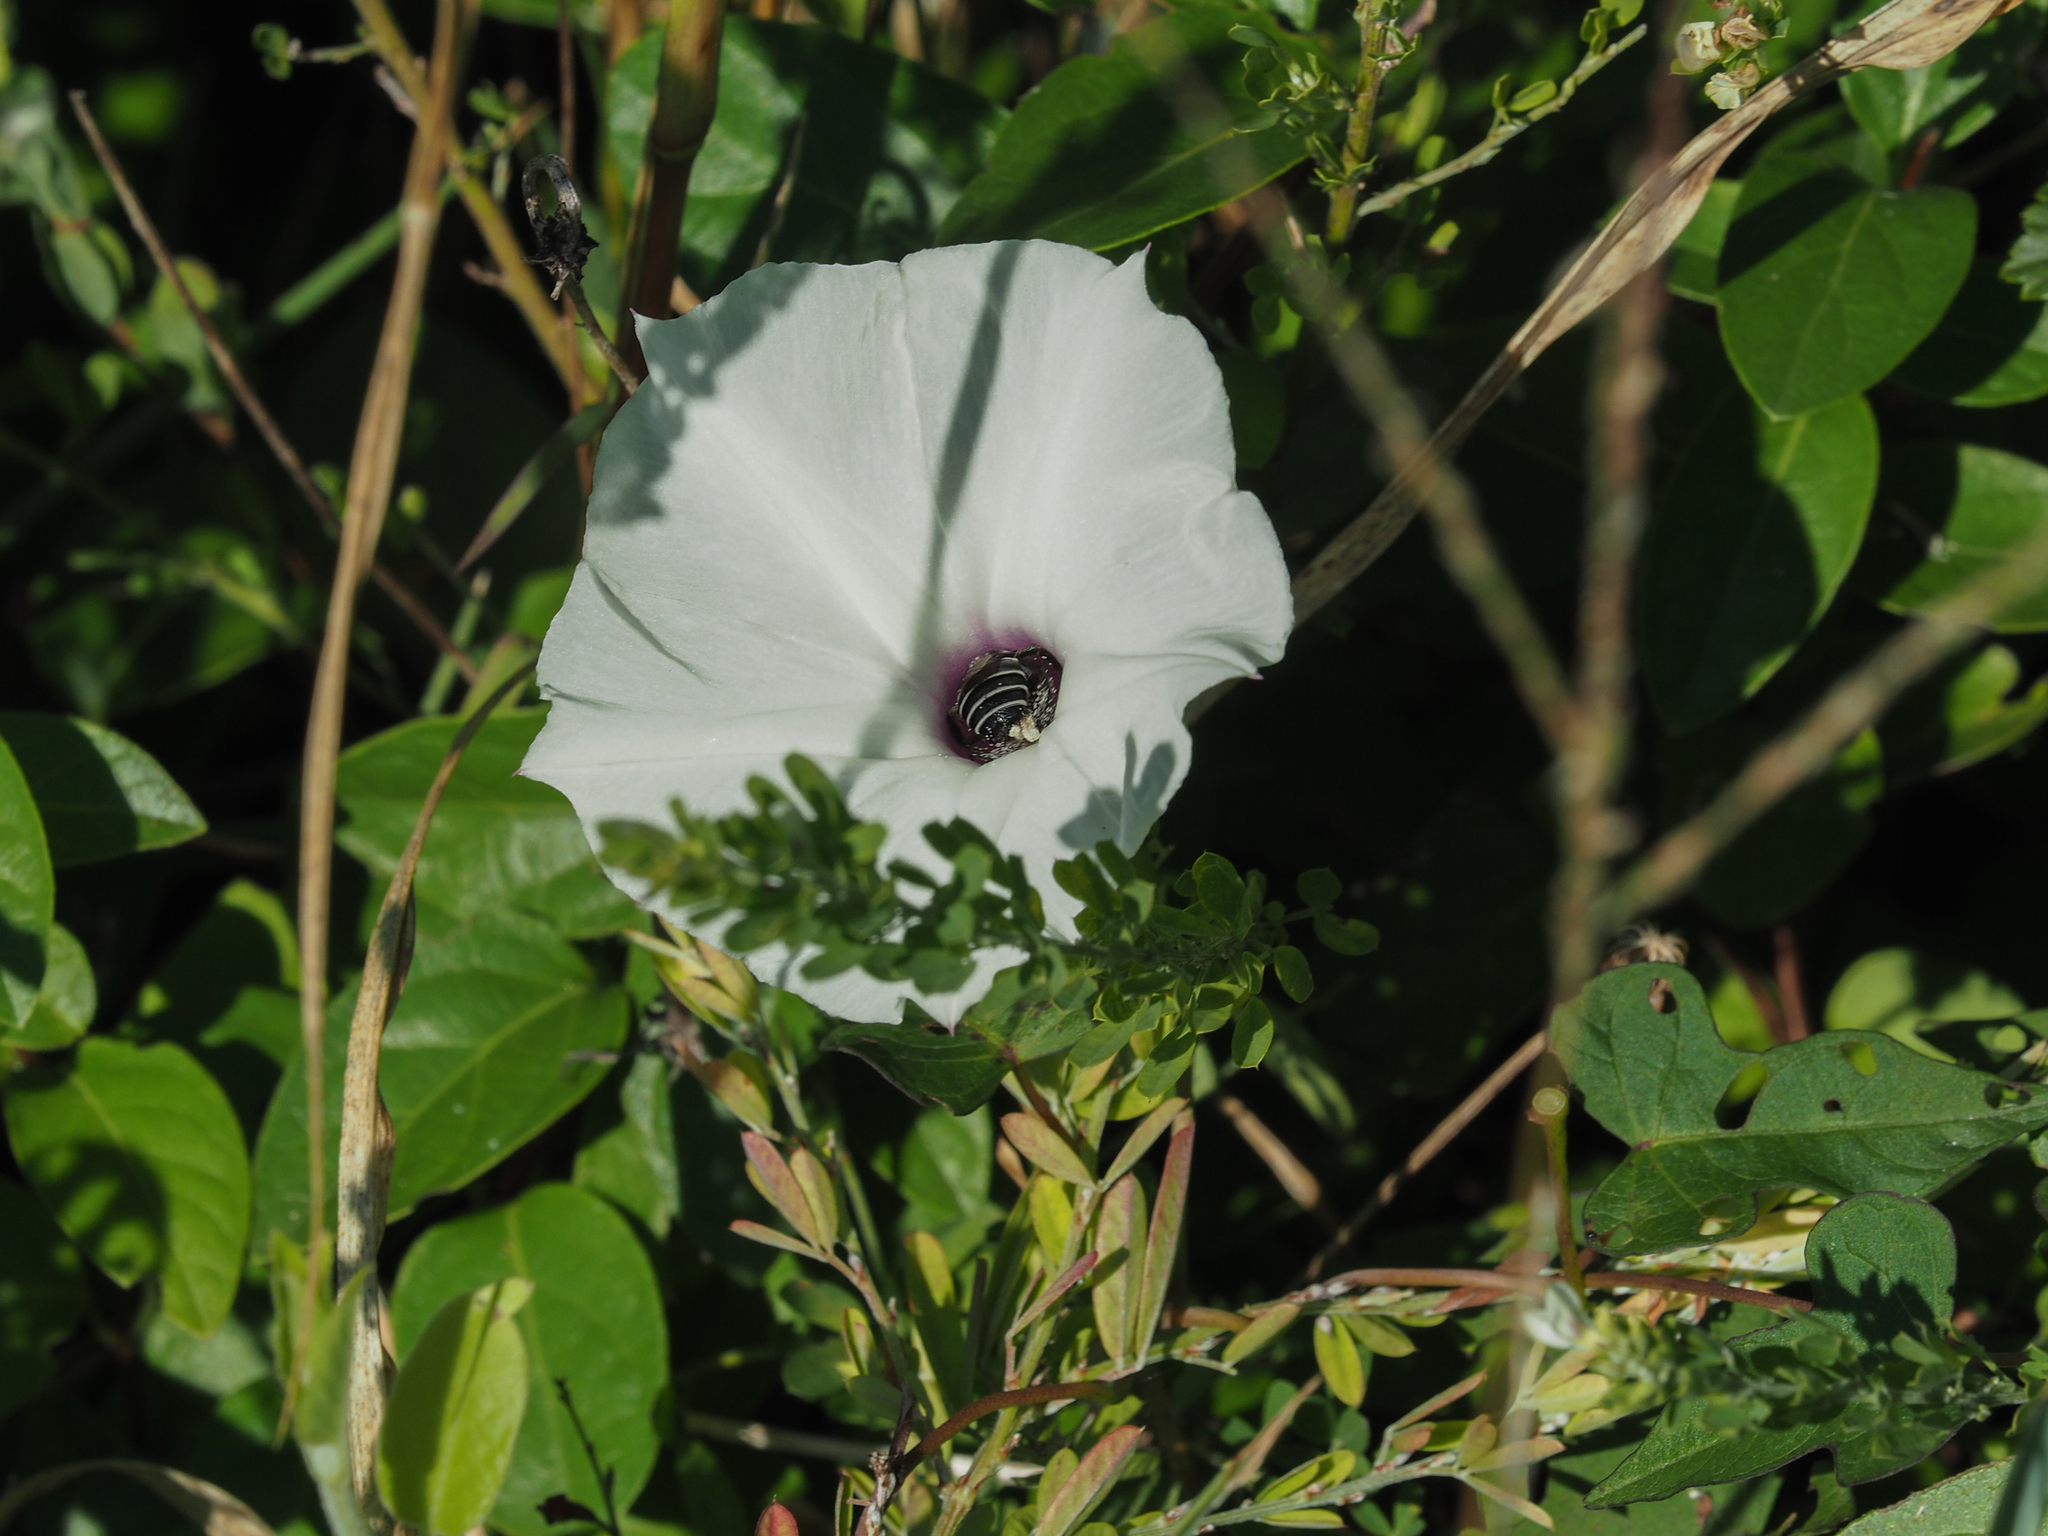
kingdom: Plantae
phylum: Tracheophyta
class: Magnoliopsida
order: Solanales
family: Convolvulaceae
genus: Ipomoea
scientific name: Ipomoea pandurata
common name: Man-of-the-earth
